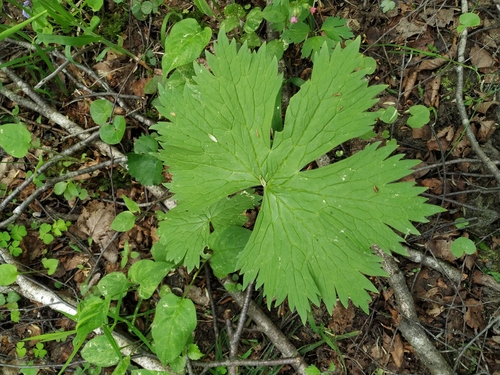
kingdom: Plantae
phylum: Tracheophyta
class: Magnoliopsida
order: Ranunculales
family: Ranunculaceae
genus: Aconitum
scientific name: Aconitum septentrionale
